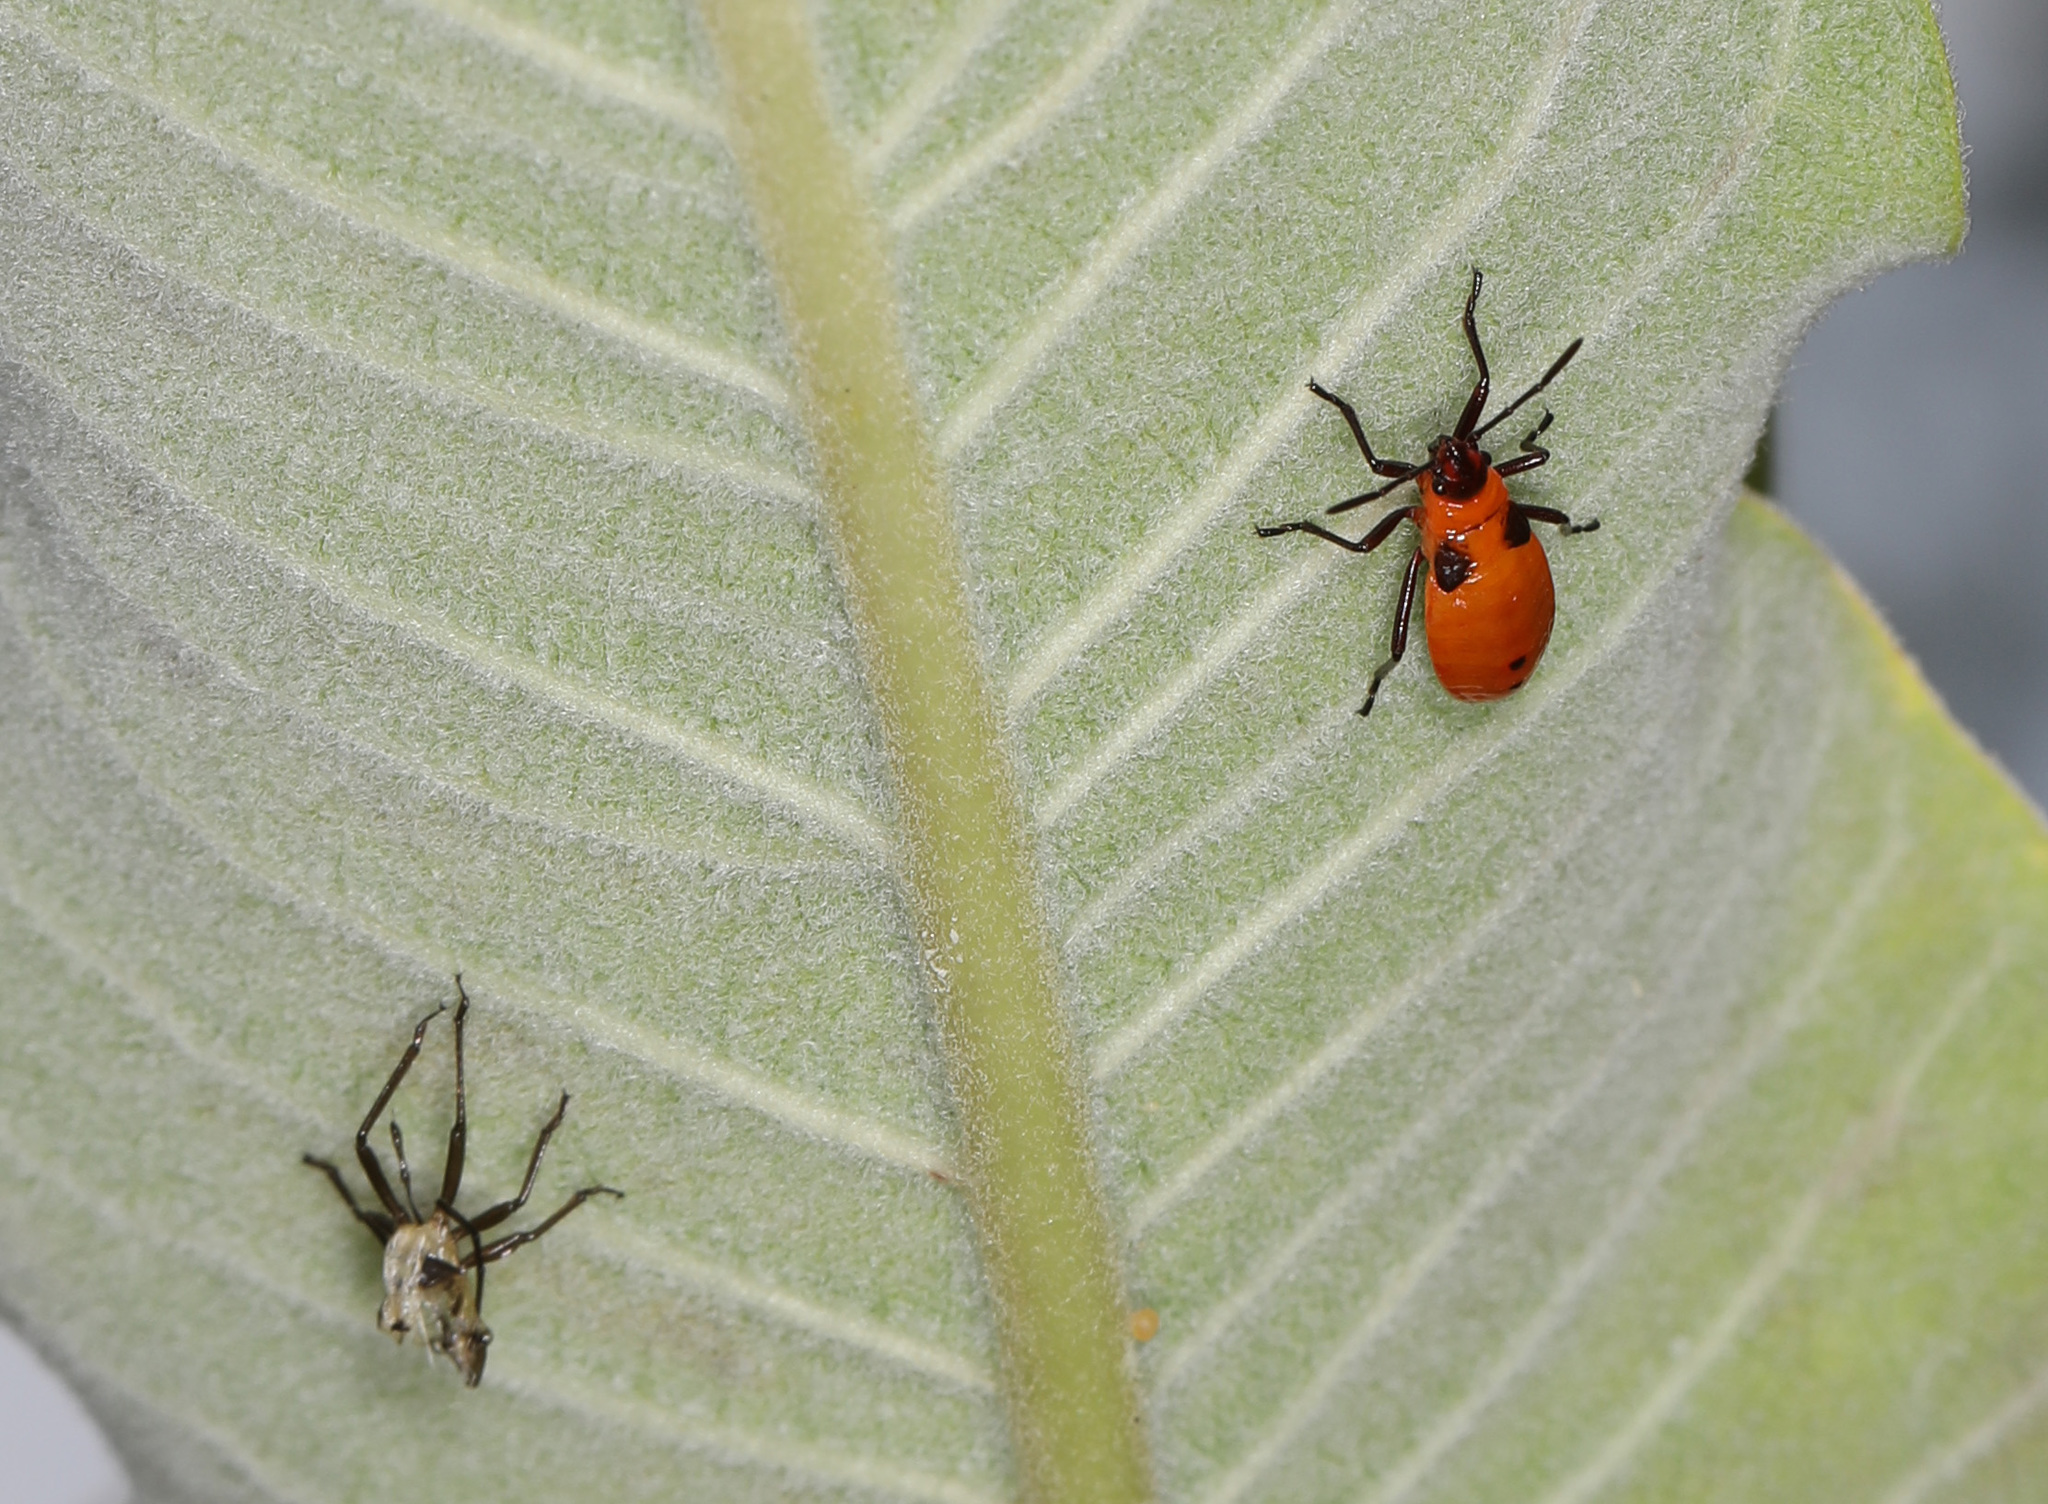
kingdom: Animalia
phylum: Arthropoda
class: Insecta
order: Hemiptera
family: Lygaeidae
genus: Oncopeltus
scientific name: Oncopeltus fasciatus
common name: Large milkweed bug
